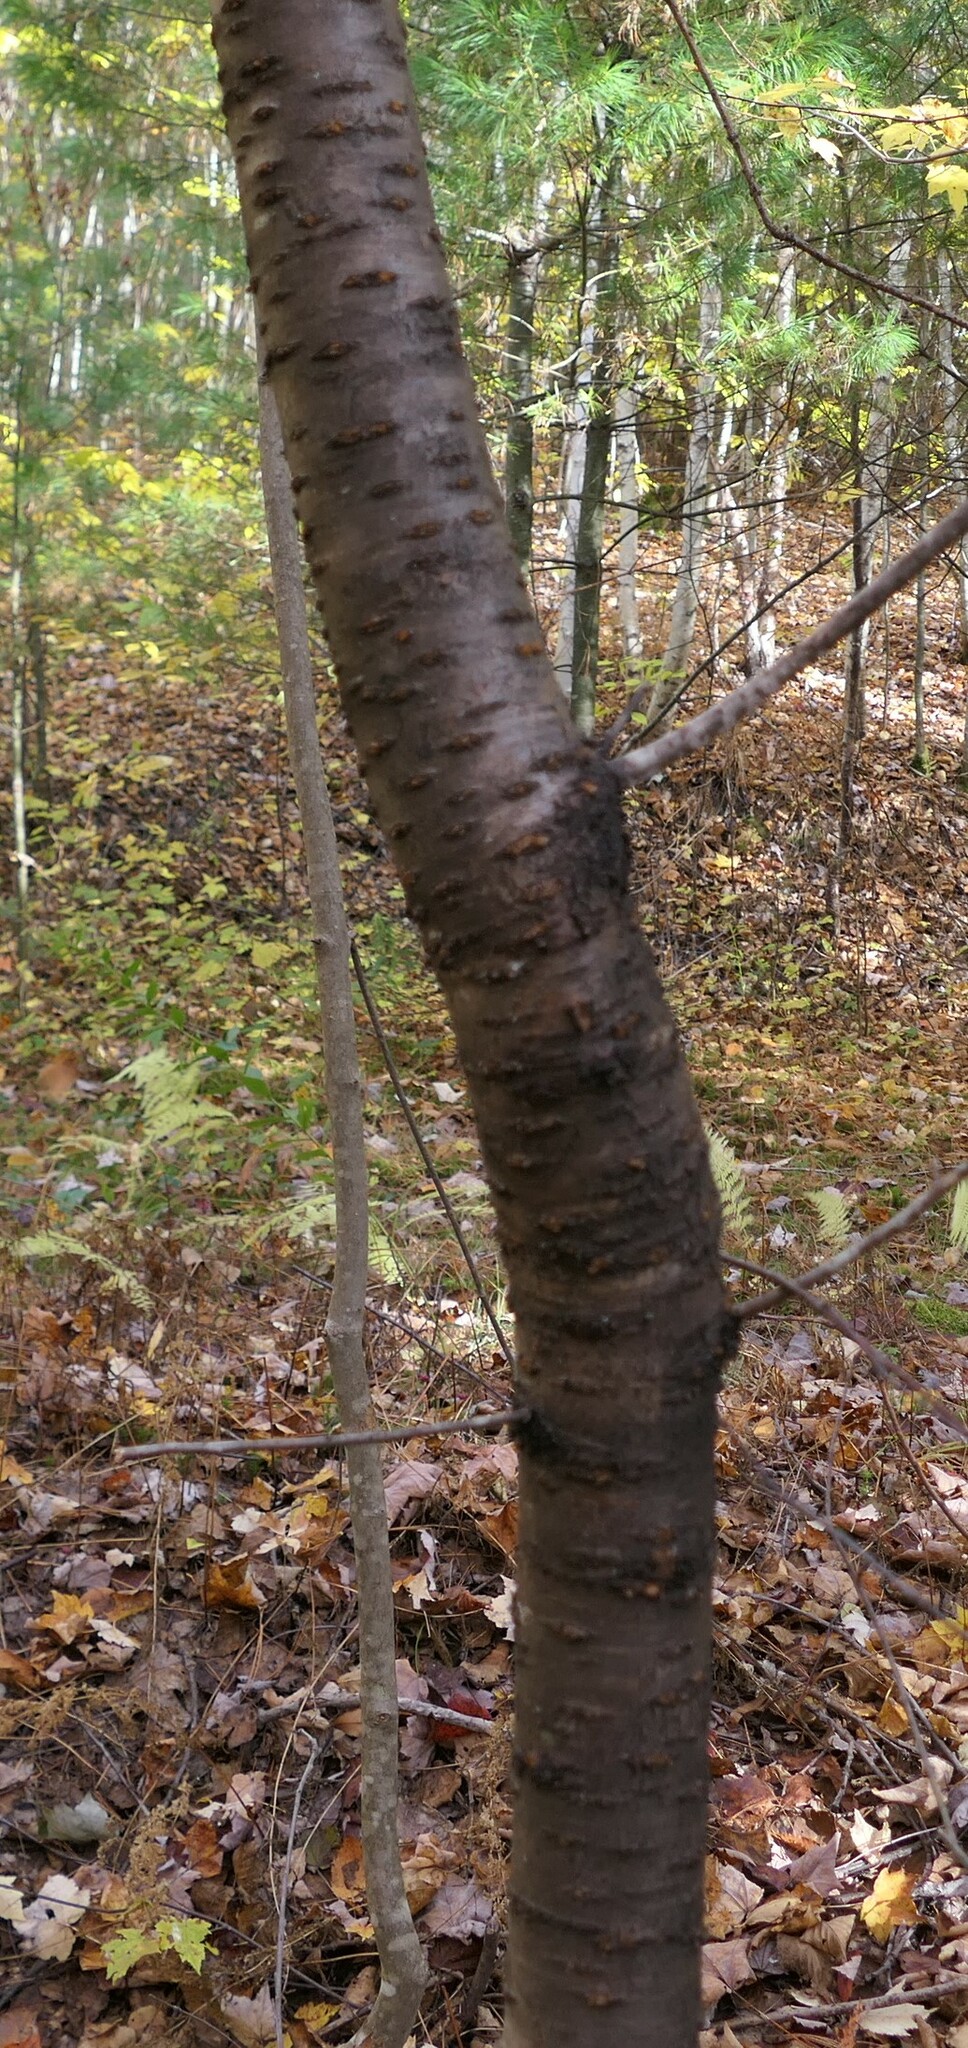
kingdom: Plantae
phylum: Tracheophyta
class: Magnoliopsida
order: Rosales
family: Rosaceae
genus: Prunus
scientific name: Prunus pensylvanica
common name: Pin cherry
